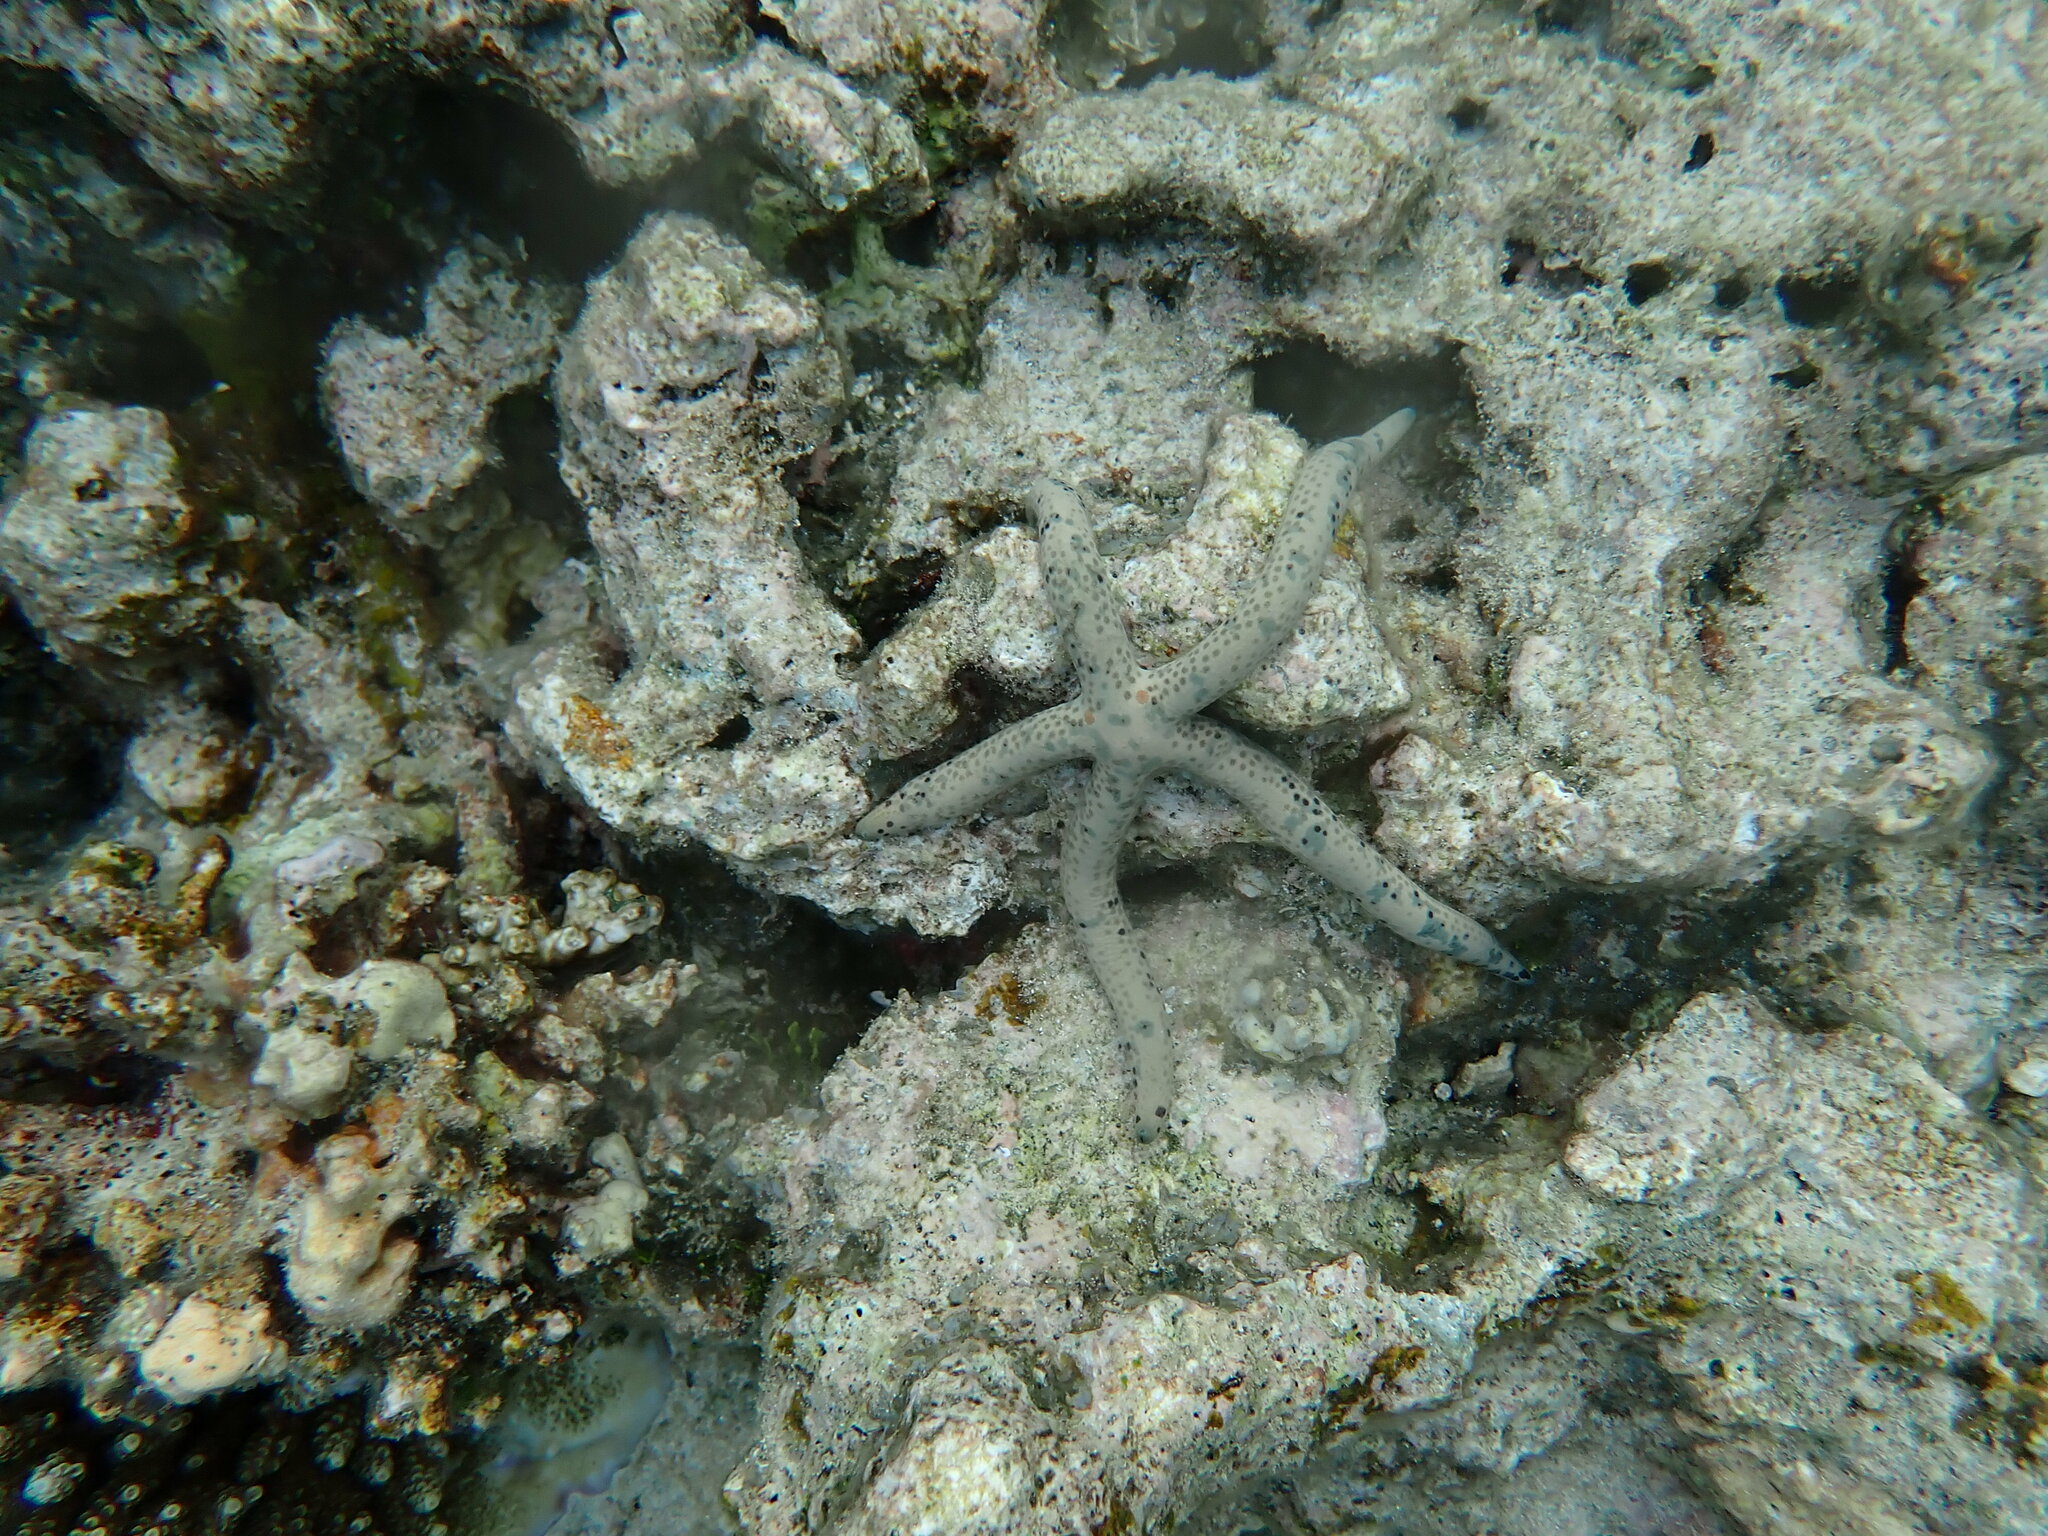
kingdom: Animalia
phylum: Echinodermata
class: Asteroidea
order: Valvatida
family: Ophidiasteridae
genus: Linckia
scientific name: Linckia multifora
